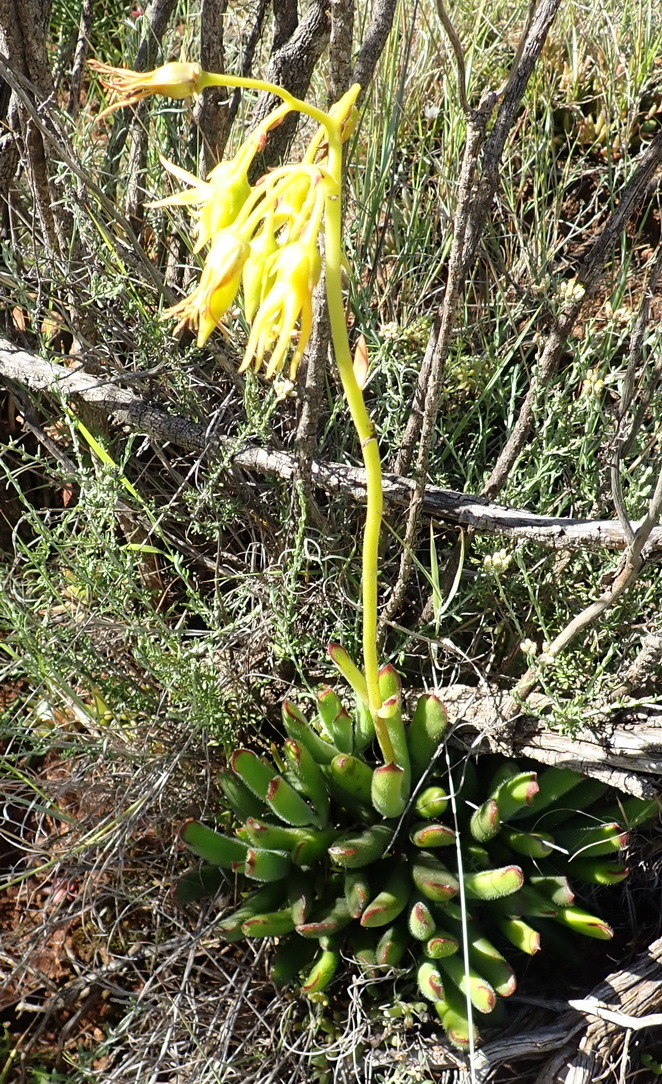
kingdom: Plantae
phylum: Tracheophyta
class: Magnoliopsida
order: Saxifragales
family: Crassulaceae
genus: Cotyledon
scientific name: Cotyledon campanulata
